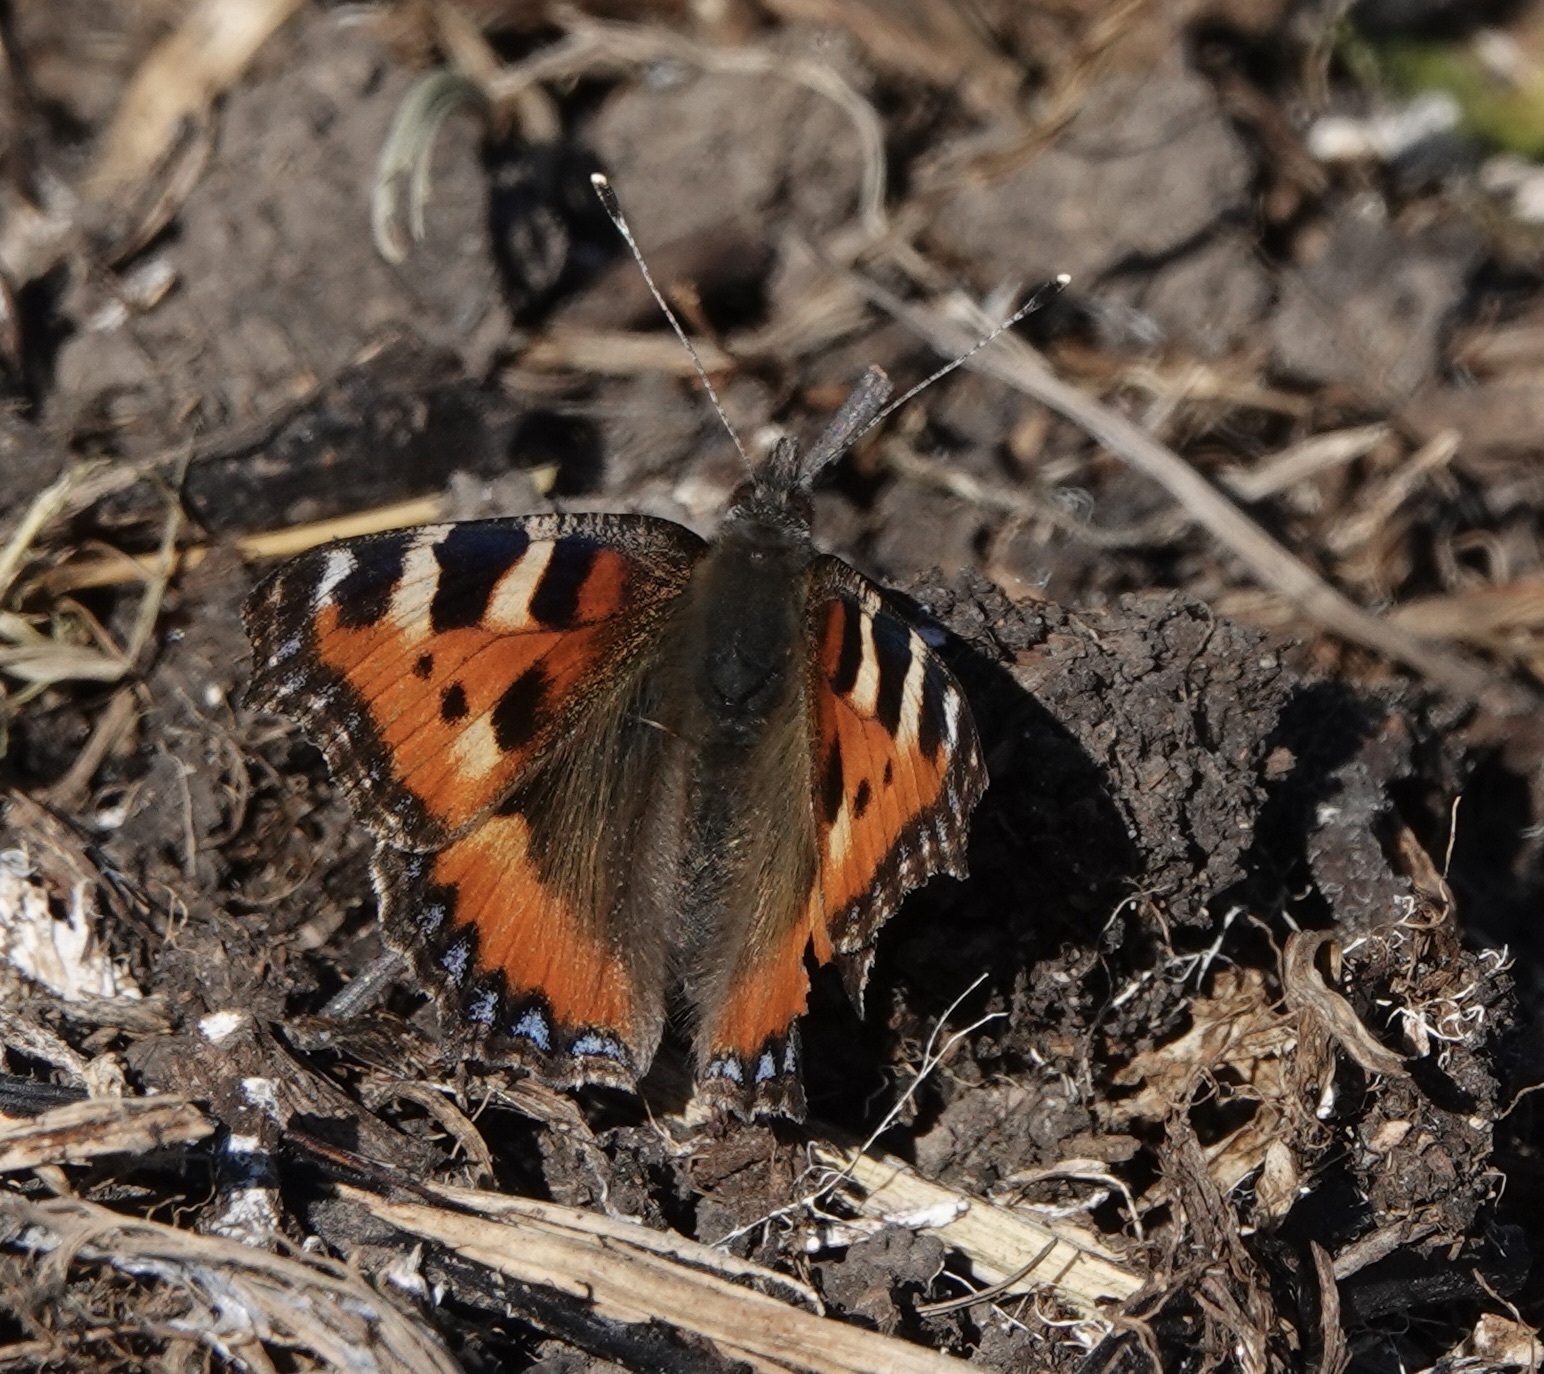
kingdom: Animalia
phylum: Arthropoda
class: Insecta
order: Lepidoptera
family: Nymphalidae
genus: Aglais
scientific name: Aglais urticae
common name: Small tortoiseshell
